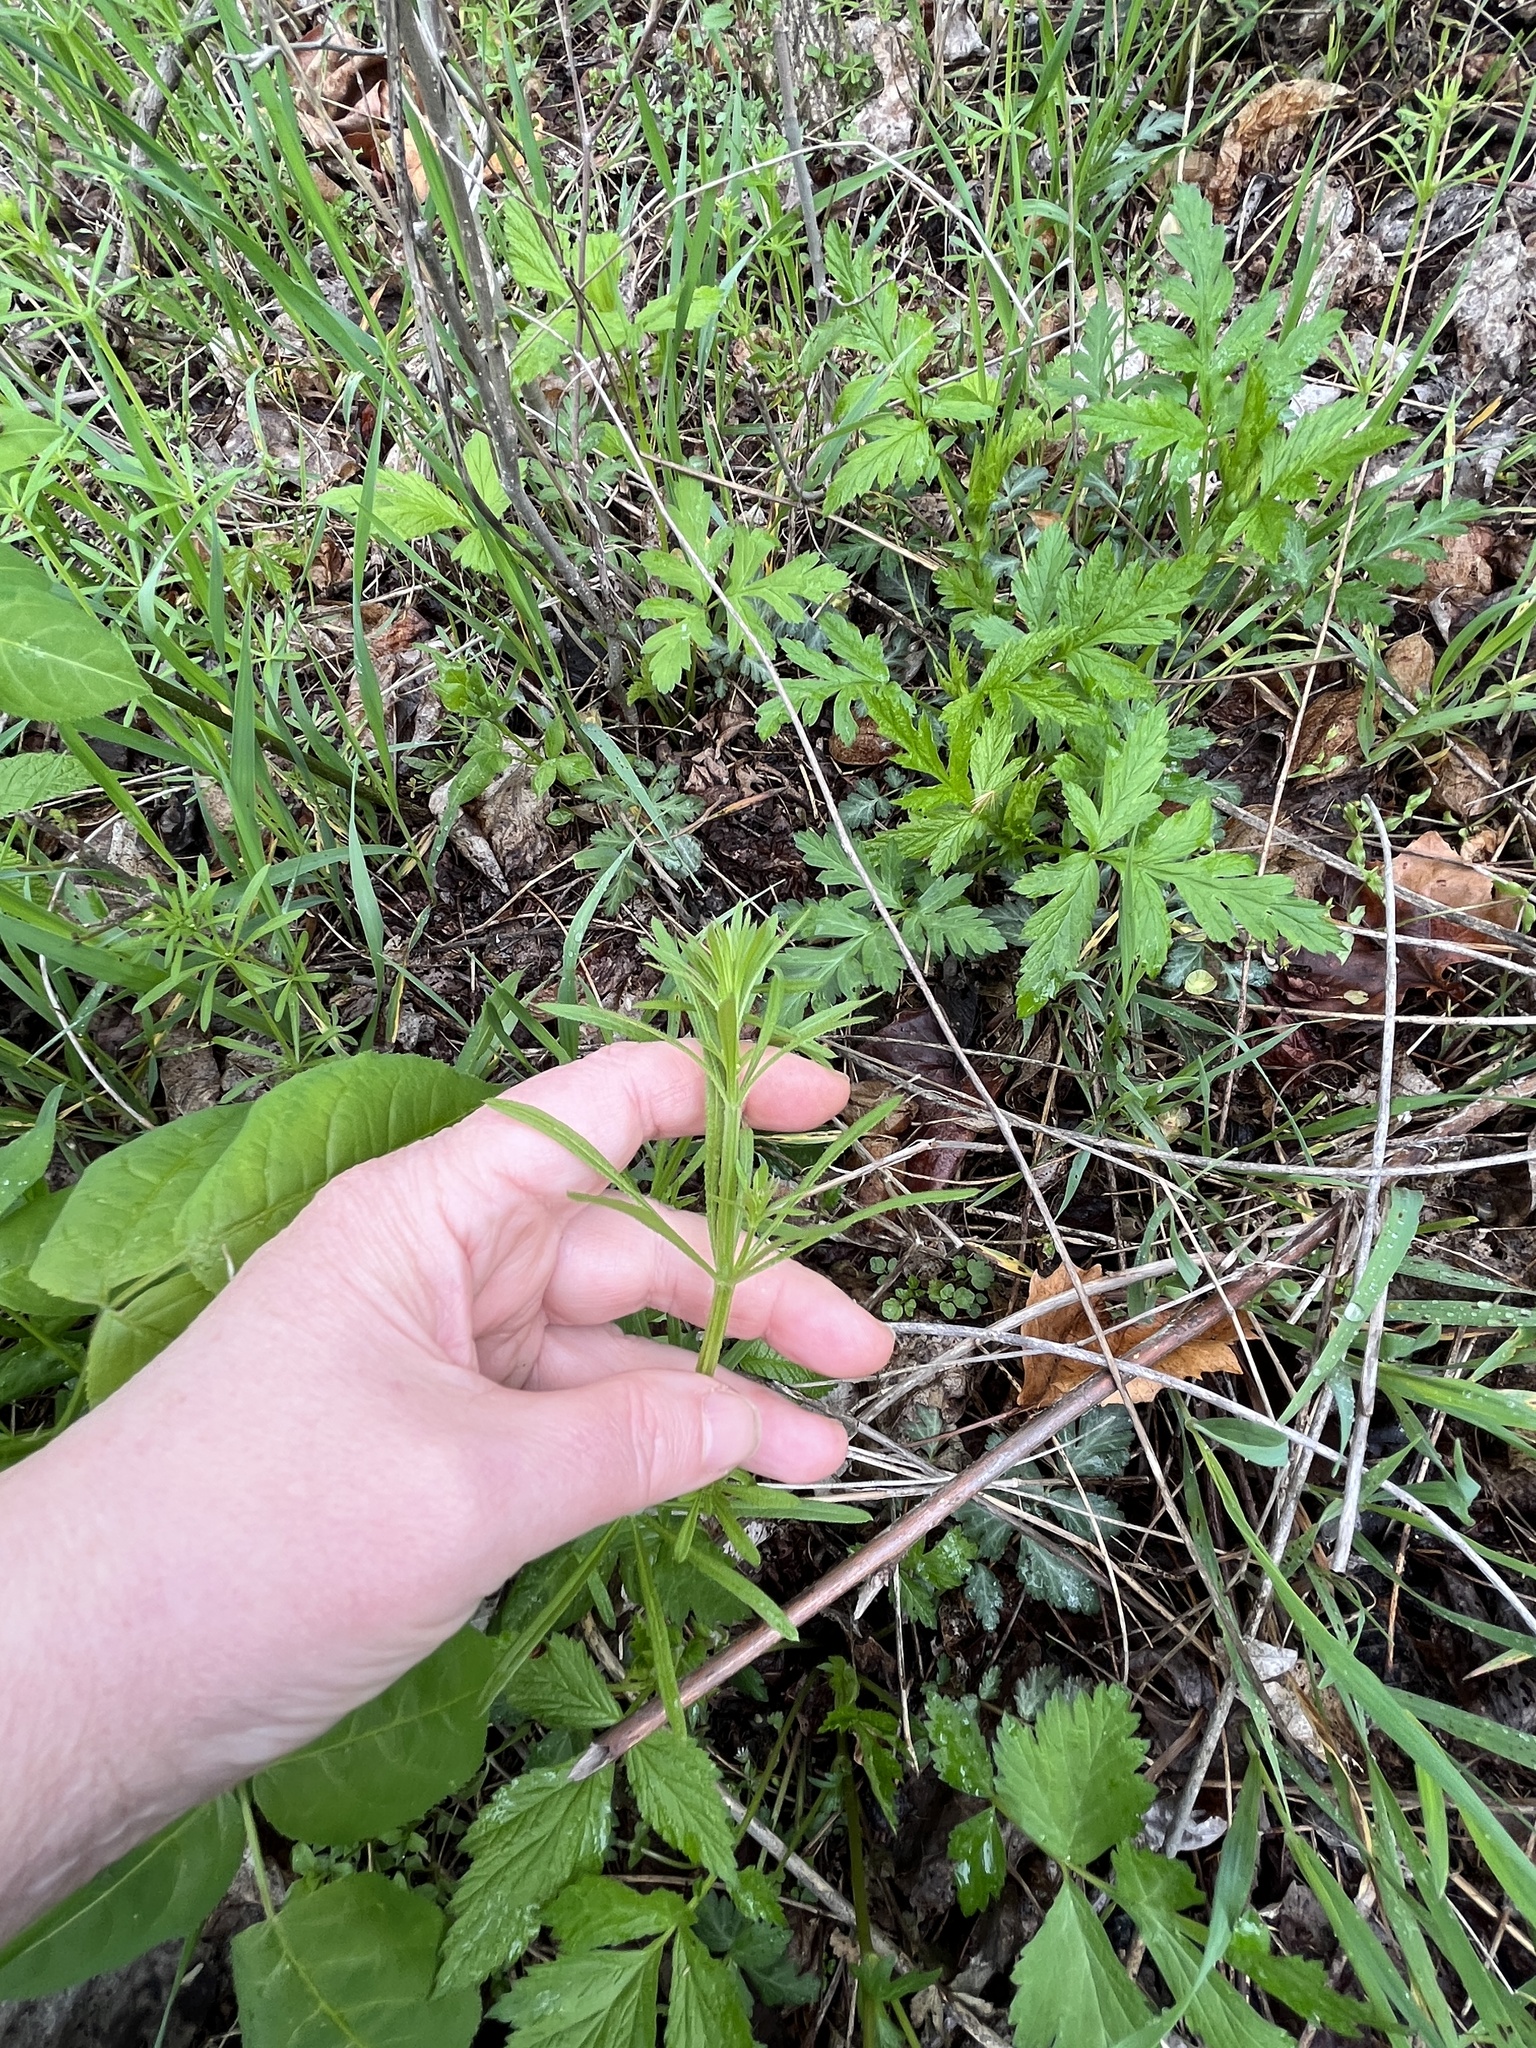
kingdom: Plantae
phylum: Tracheophyta
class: Magnoliopsida
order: Gentianales
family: Rubiaceae
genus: Galium
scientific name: Galium aparine
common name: Cleavers
